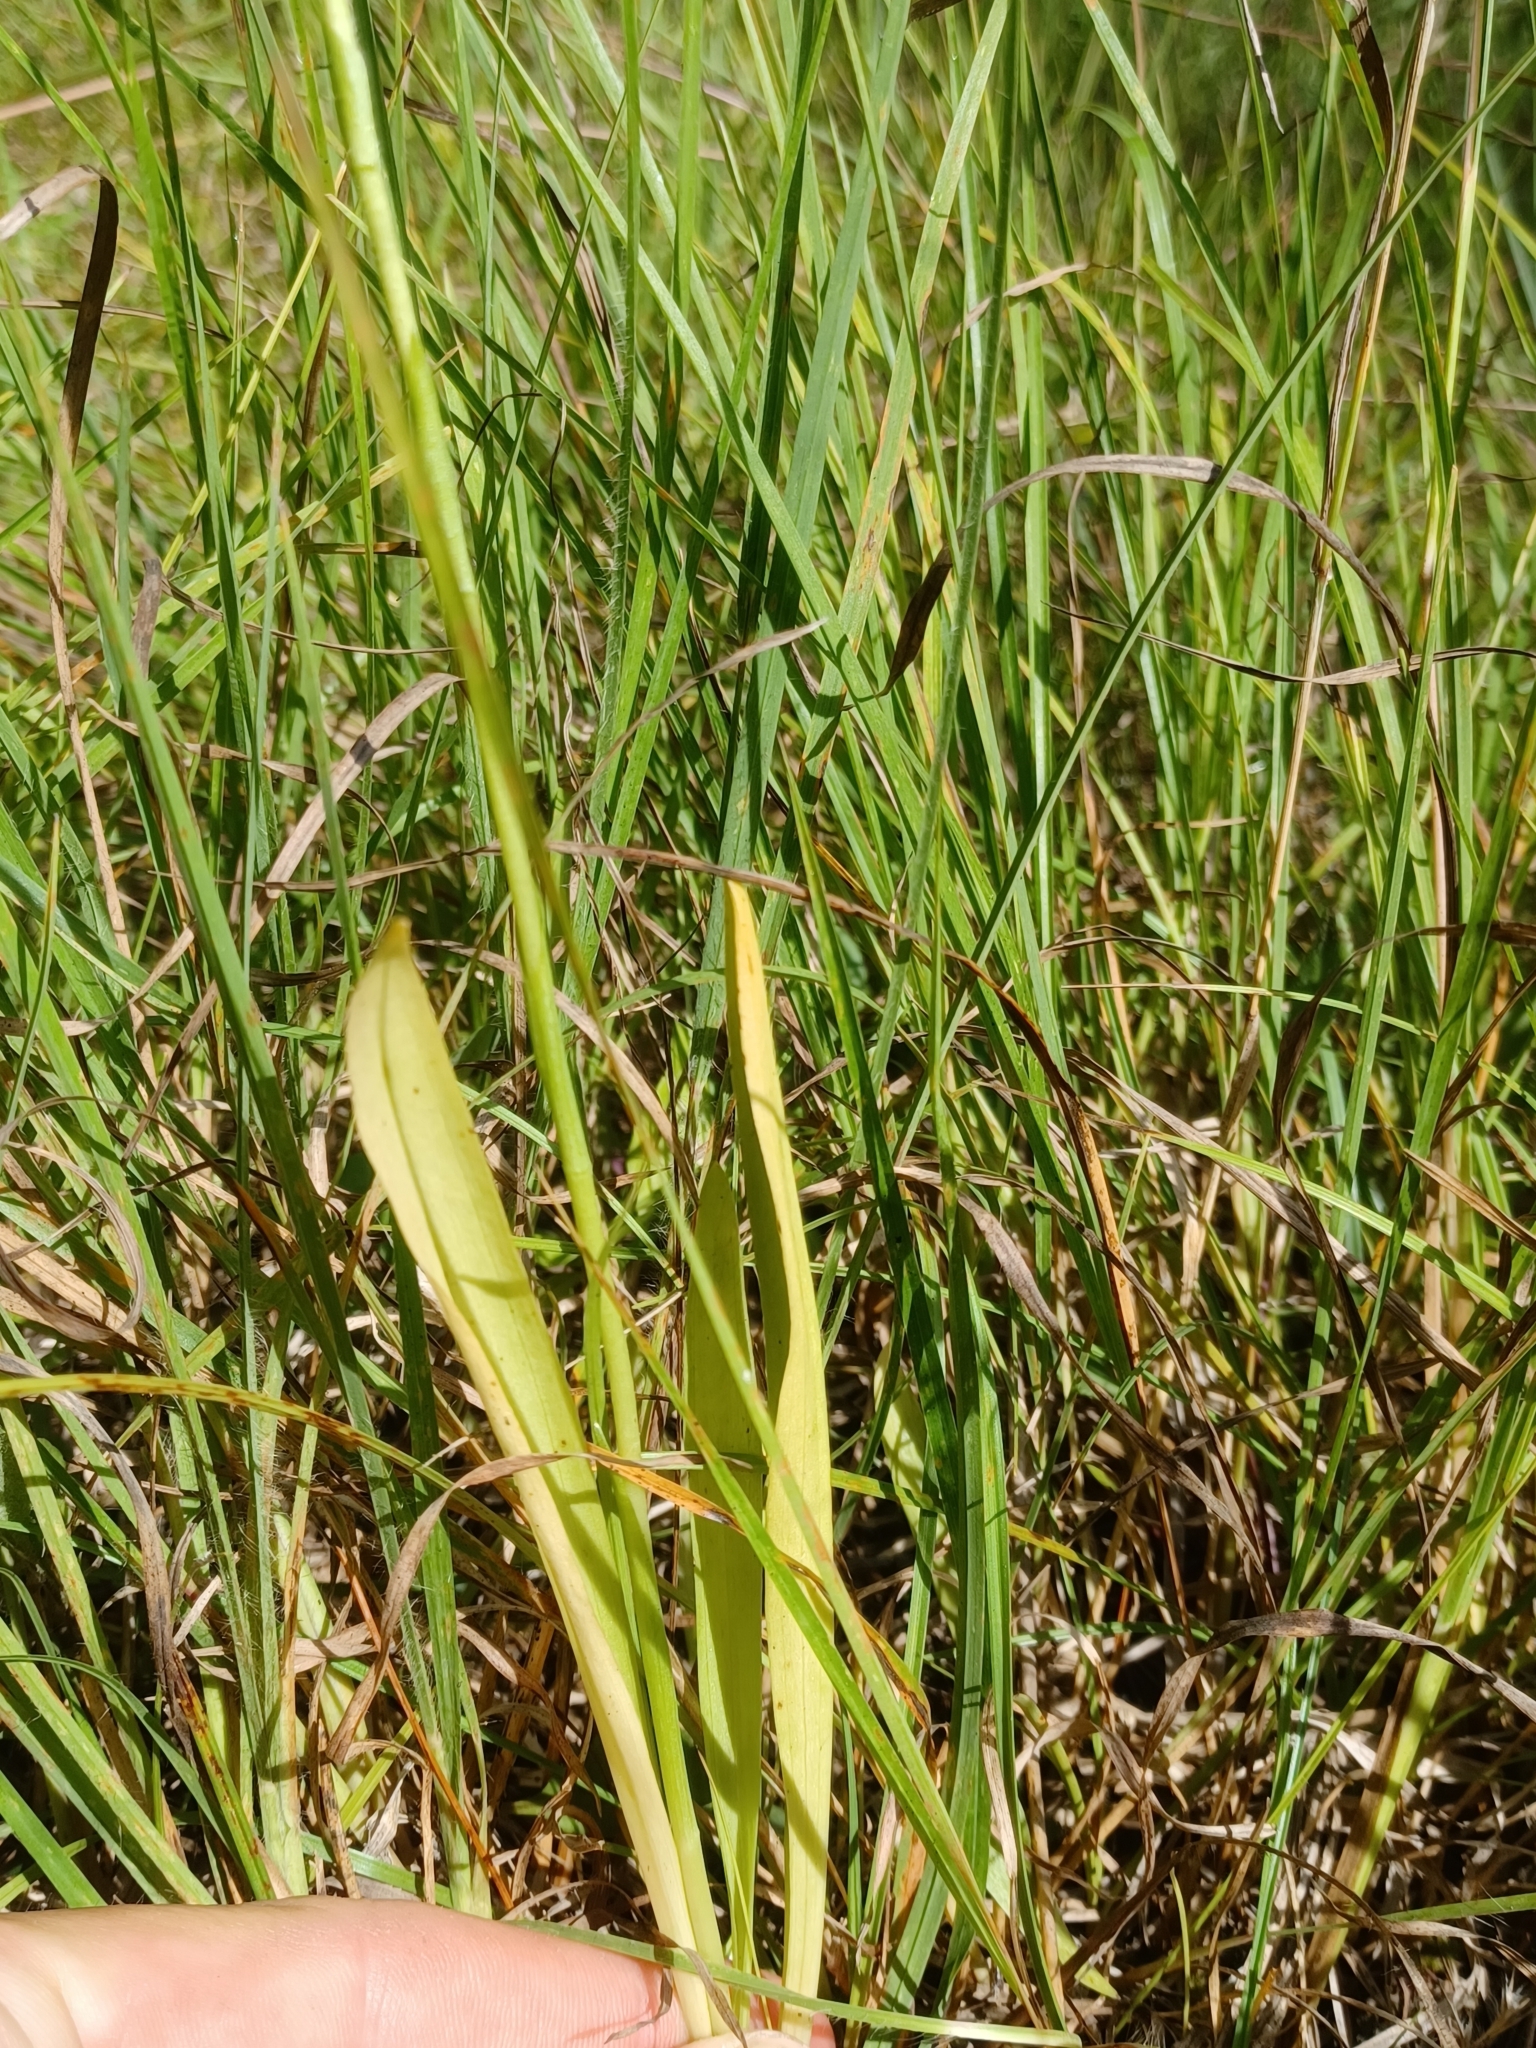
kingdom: Plantae
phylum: Tracheophyta
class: Liliopsida
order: Asparagales
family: Orchidaceae
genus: Spiranthes
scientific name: Spiranthes incurva
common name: Sphinx ladies'-tresses
